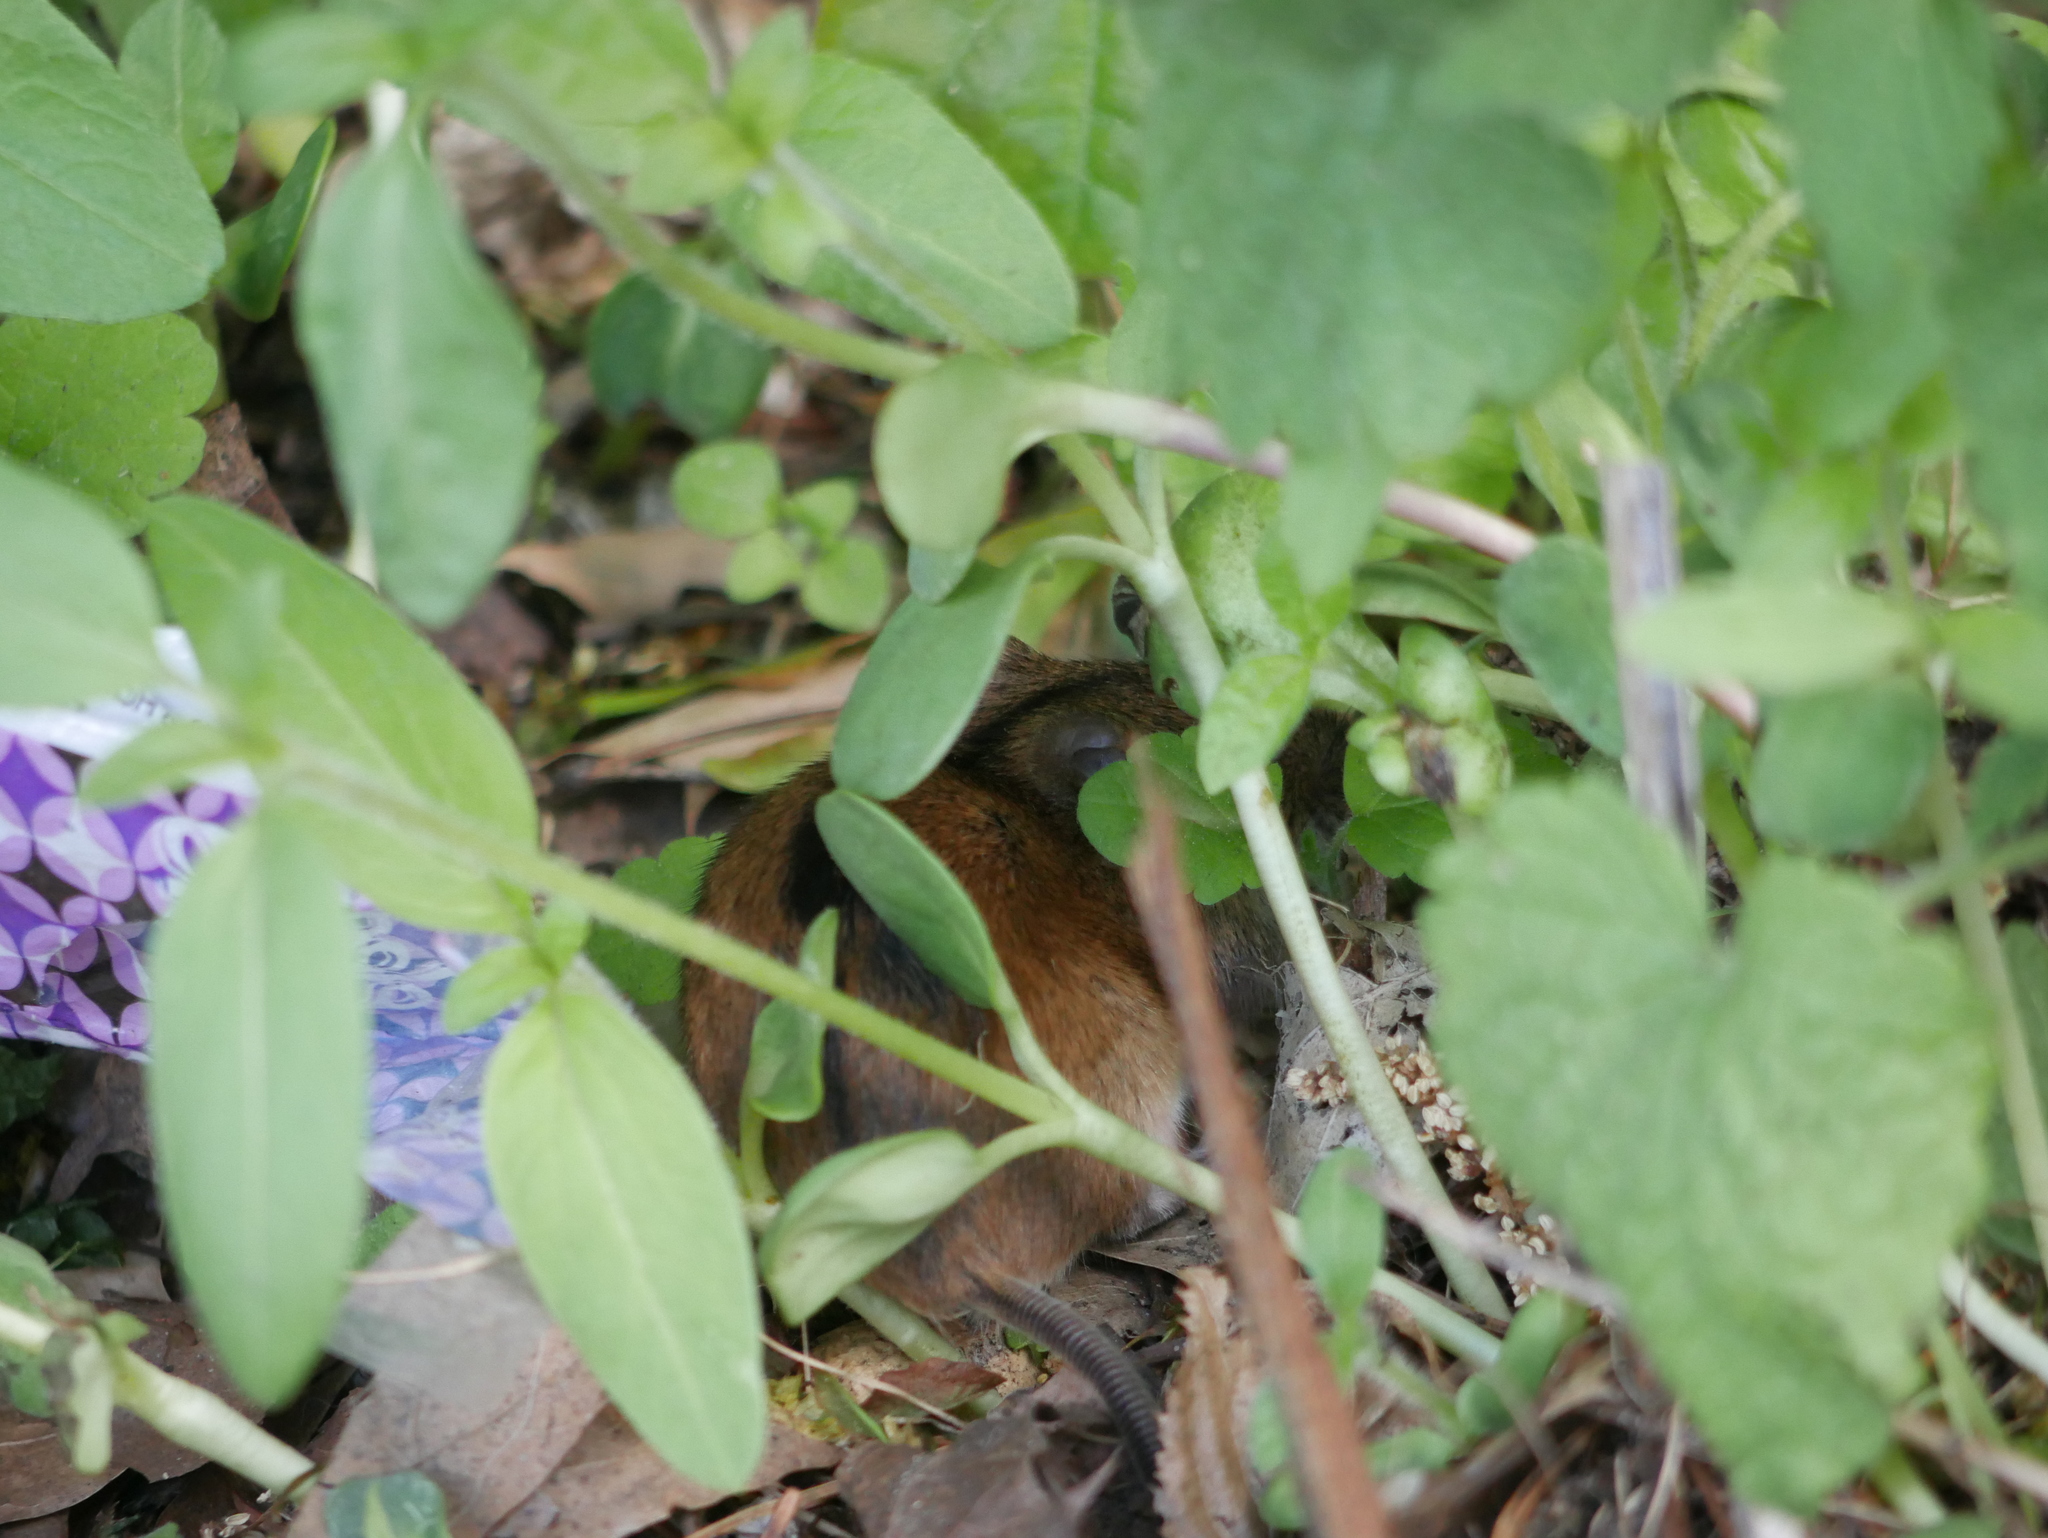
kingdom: Animalia
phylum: Chordata
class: Mammalia
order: Rodentia
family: Muridae
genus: Apodemus
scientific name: Apodemus agrarius
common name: Striped field mouse
